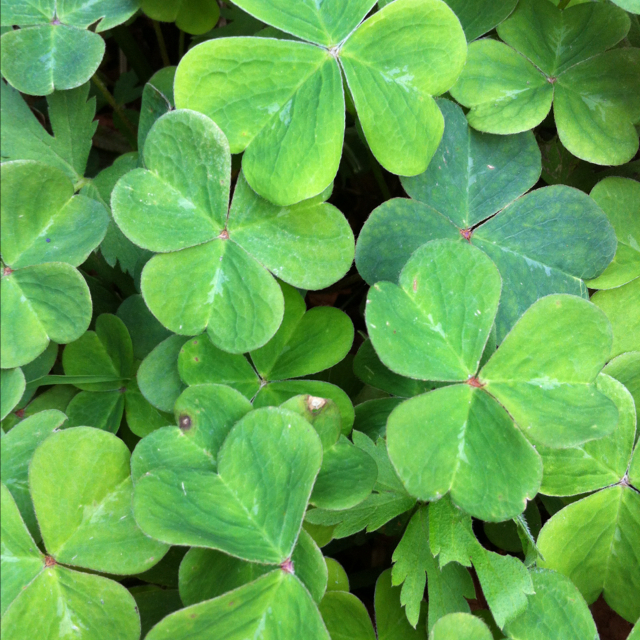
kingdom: Plantae
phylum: Tracheophyta
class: Magnoliopsida
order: Oxalidales
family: Oxalidaceae
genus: Oxalis
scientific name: Oxalis oregana
